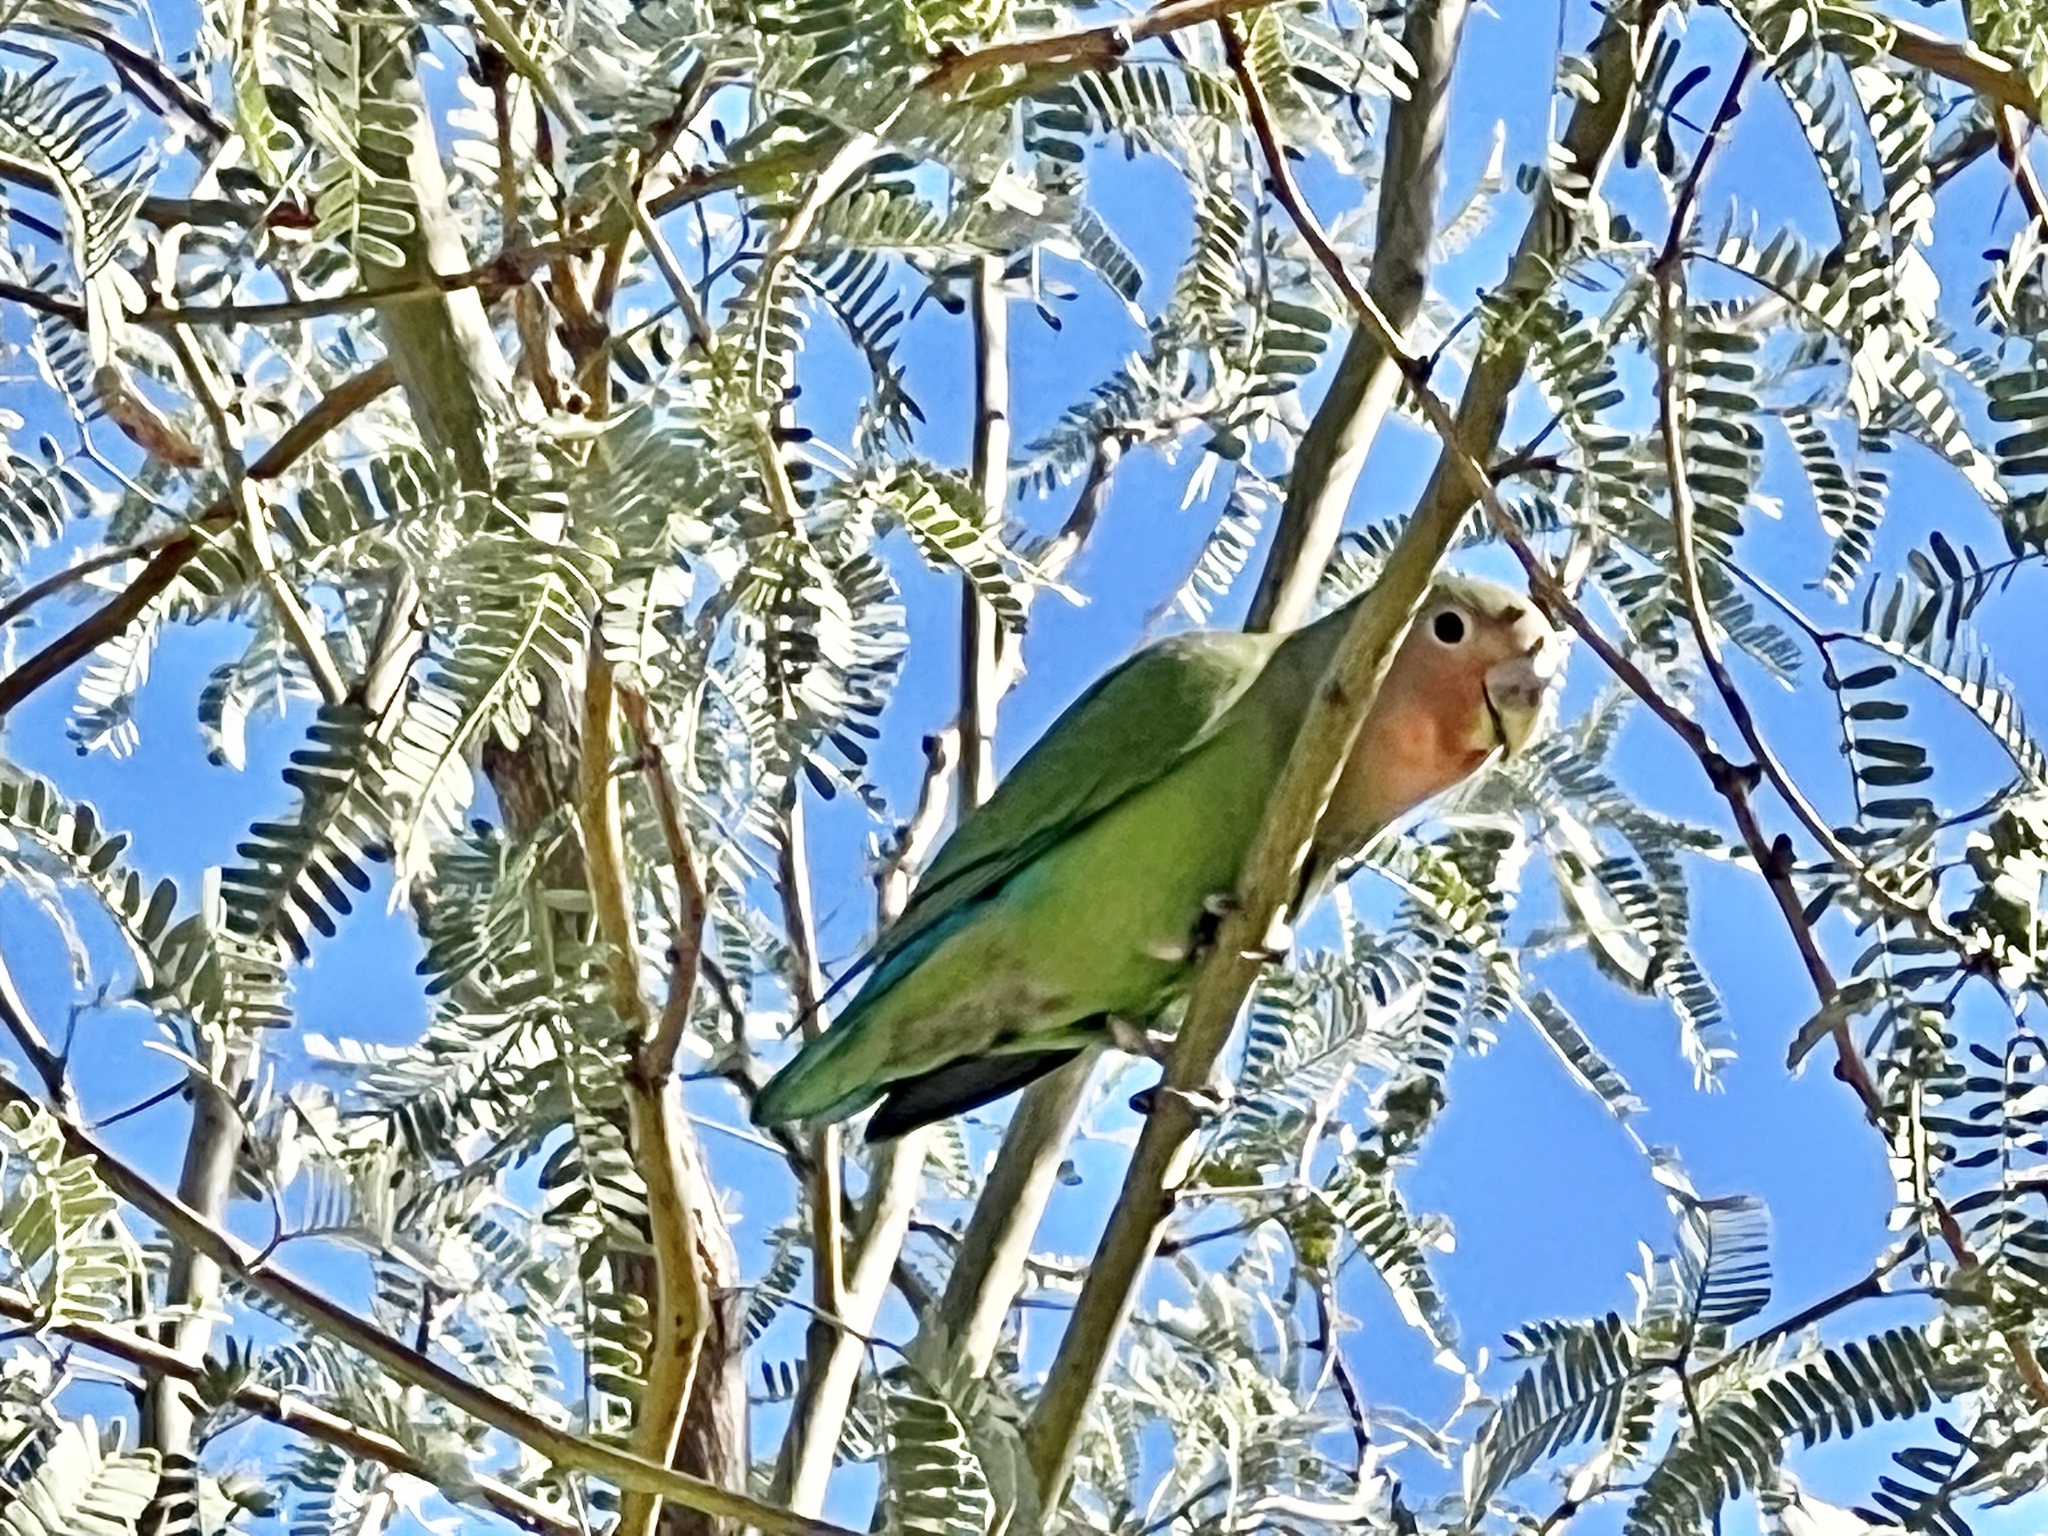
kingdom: Animalia
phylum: Chordata
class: Aves
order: Psittaciformes
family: Psittacidae
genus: Agapornis
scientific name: Agapornis roseicollis
